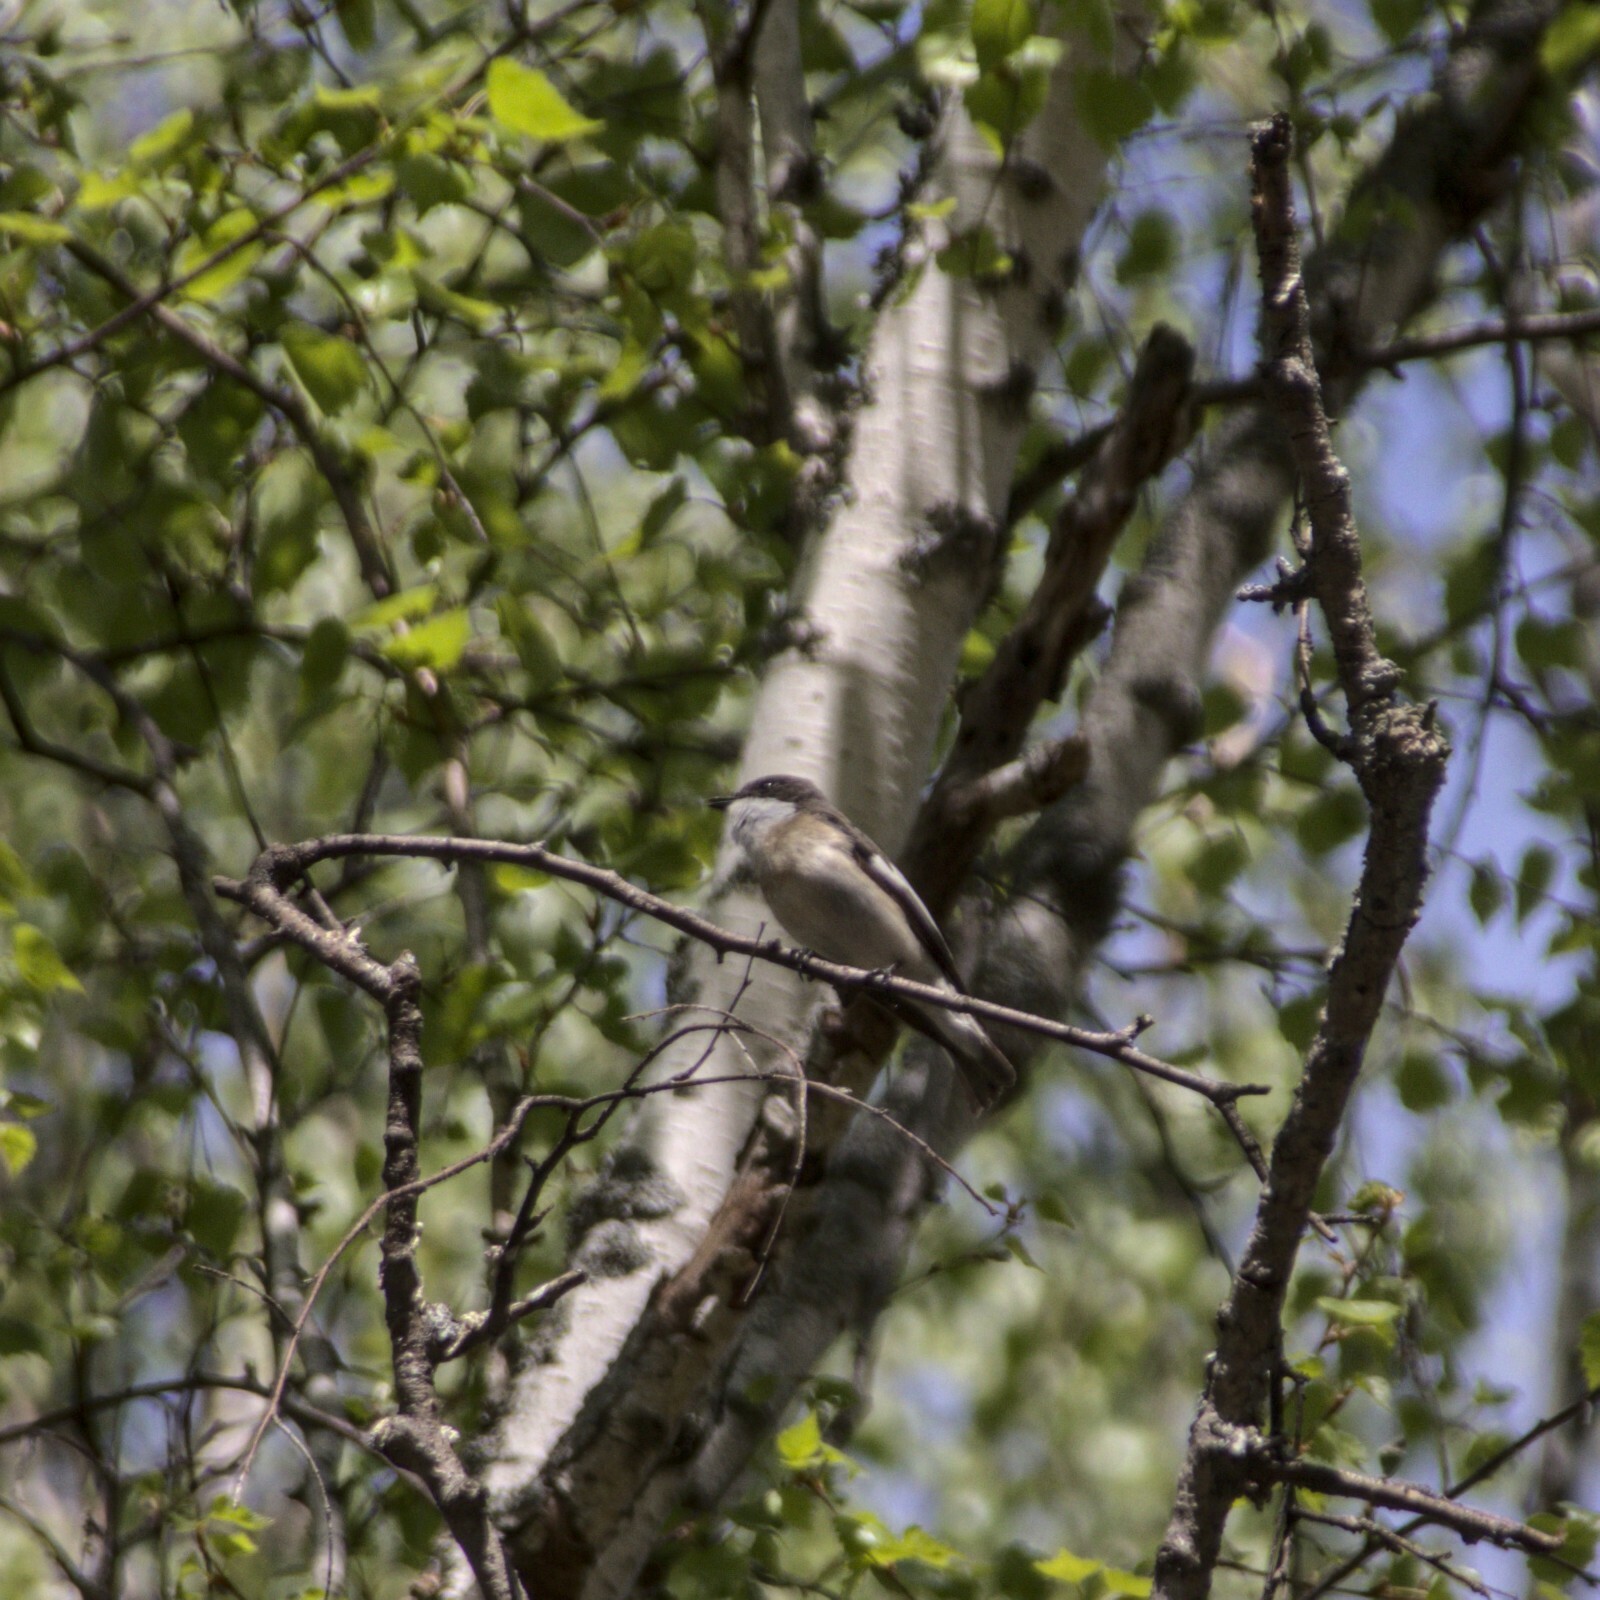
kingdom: Animalia
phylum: Chordata
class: Aves
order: Passeriformes
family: Muscicapidae
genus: Ficedula
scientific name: Ficedula hypoleuca
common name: European pied flycatcher
